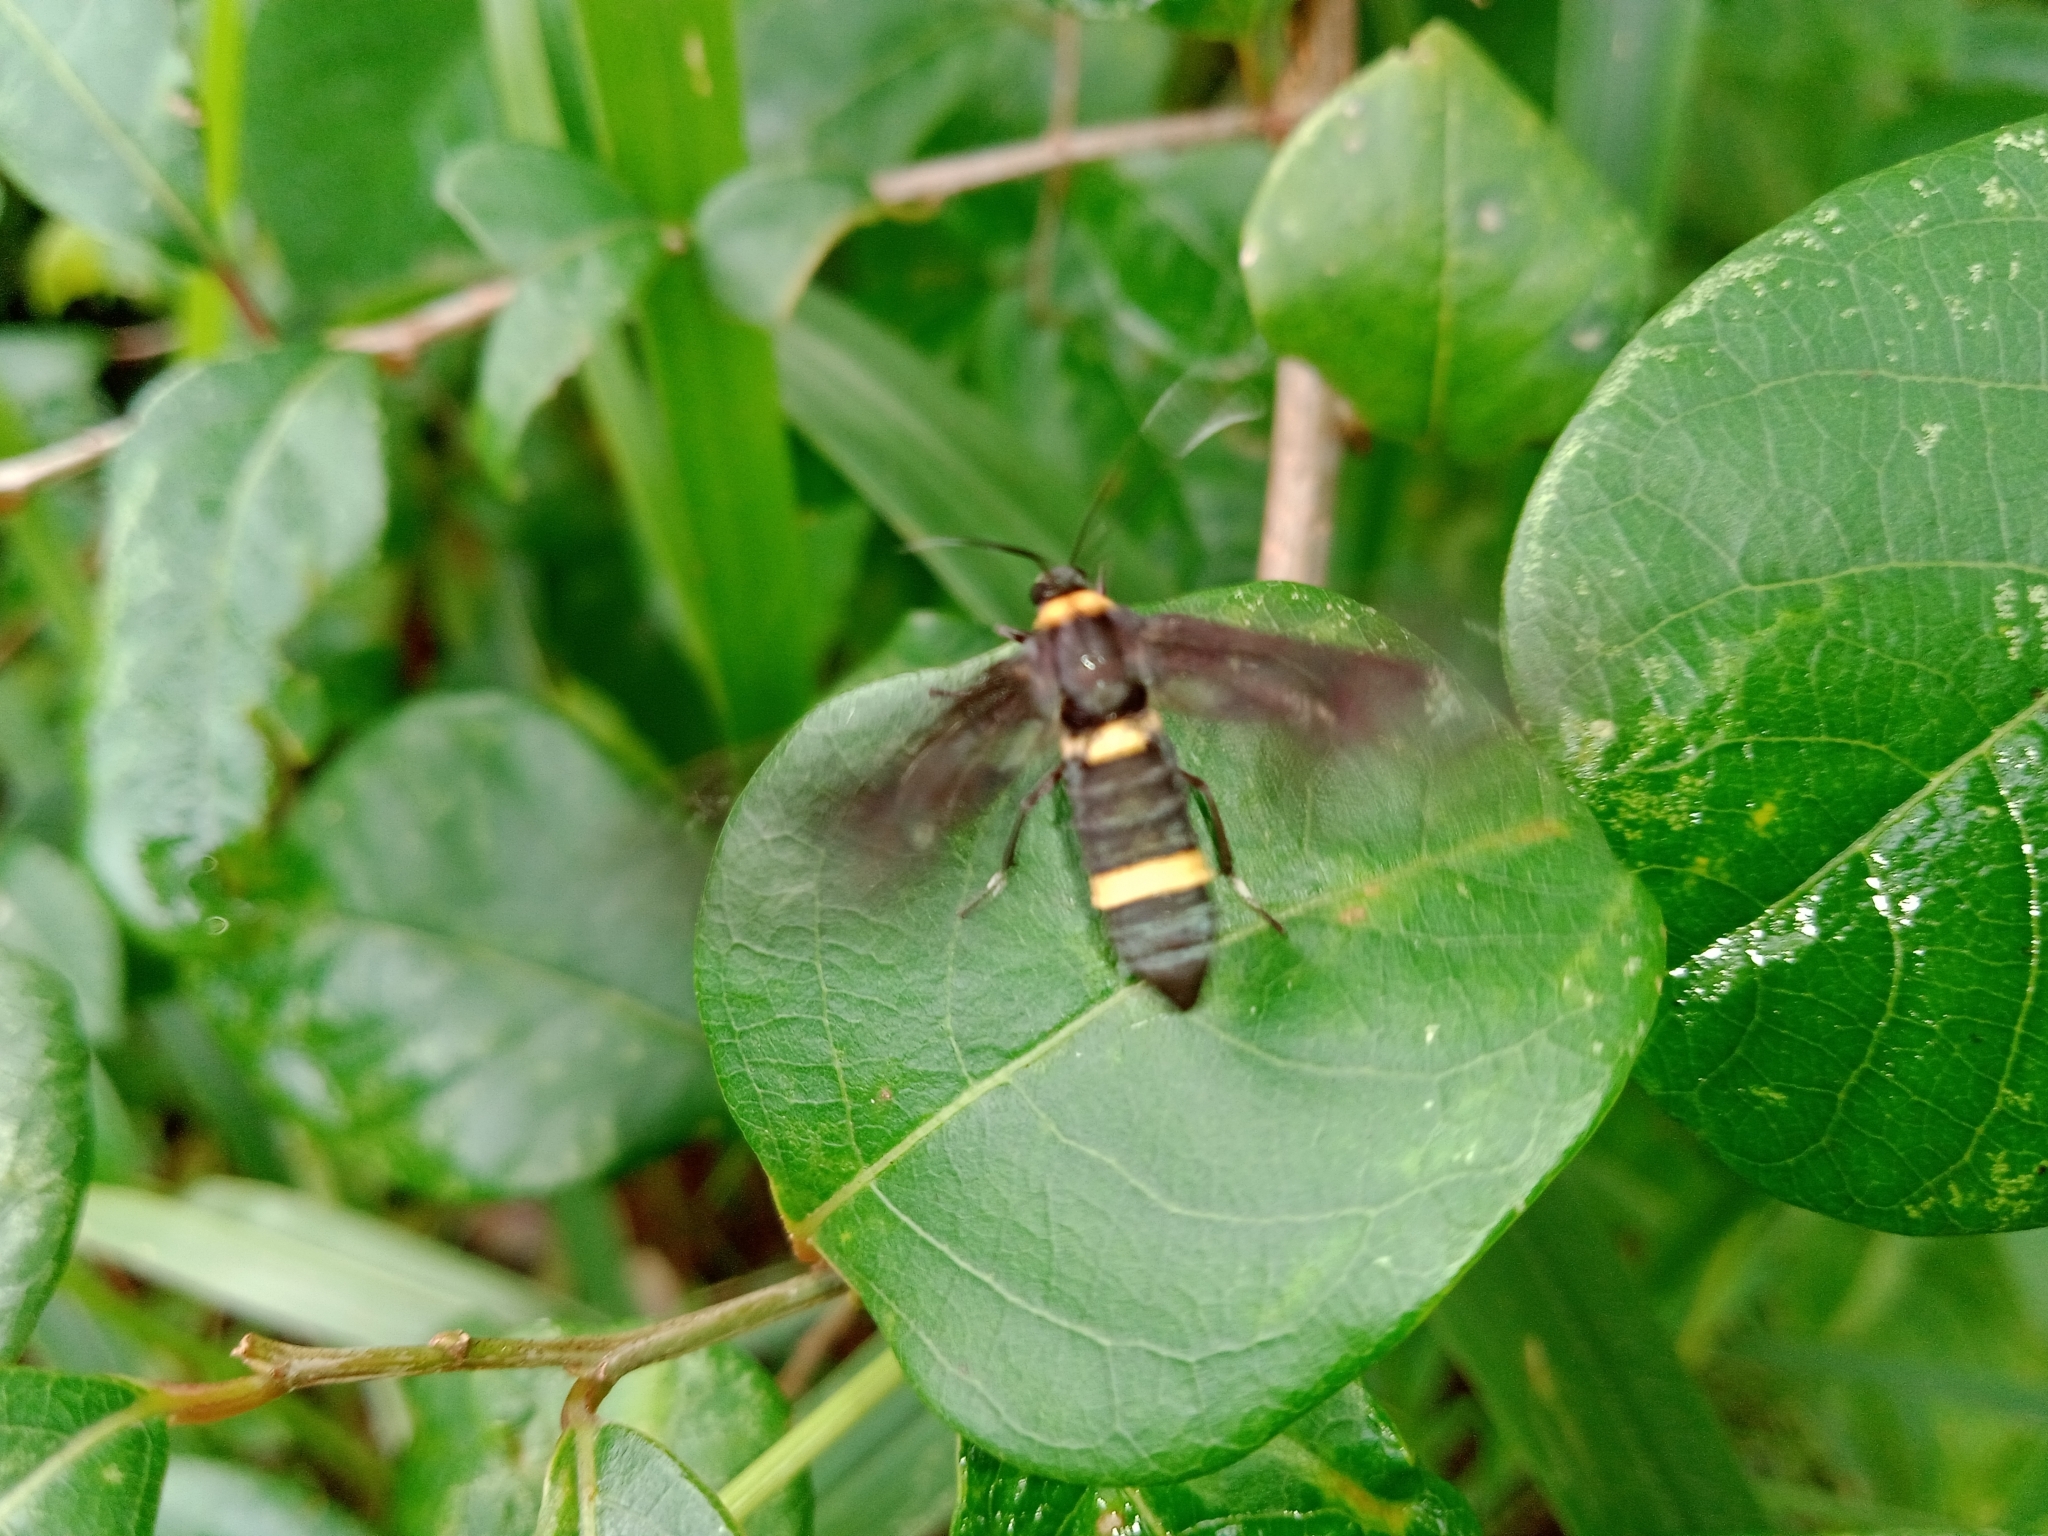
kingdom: Animalia
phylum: Arthropoda
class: Insecta
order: Lepidoptera
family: Erebidae
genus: Syntomoides
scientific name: Syntomoides imaon
